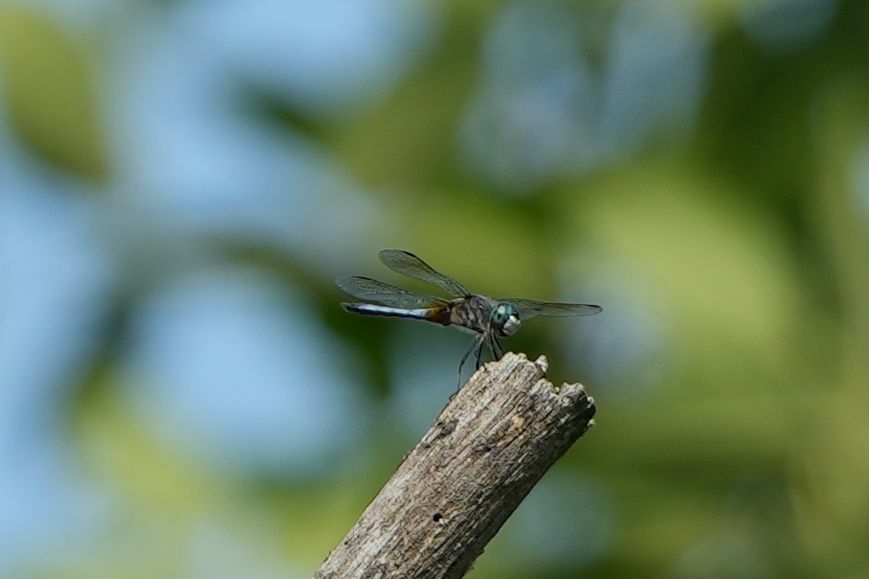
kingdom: Animalia
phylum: Arthropoda
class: Insecta
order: Odonata
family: Libellulidae
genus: Pachydiplax
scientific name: Pachydiplax longipennis
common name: Blue dasher
